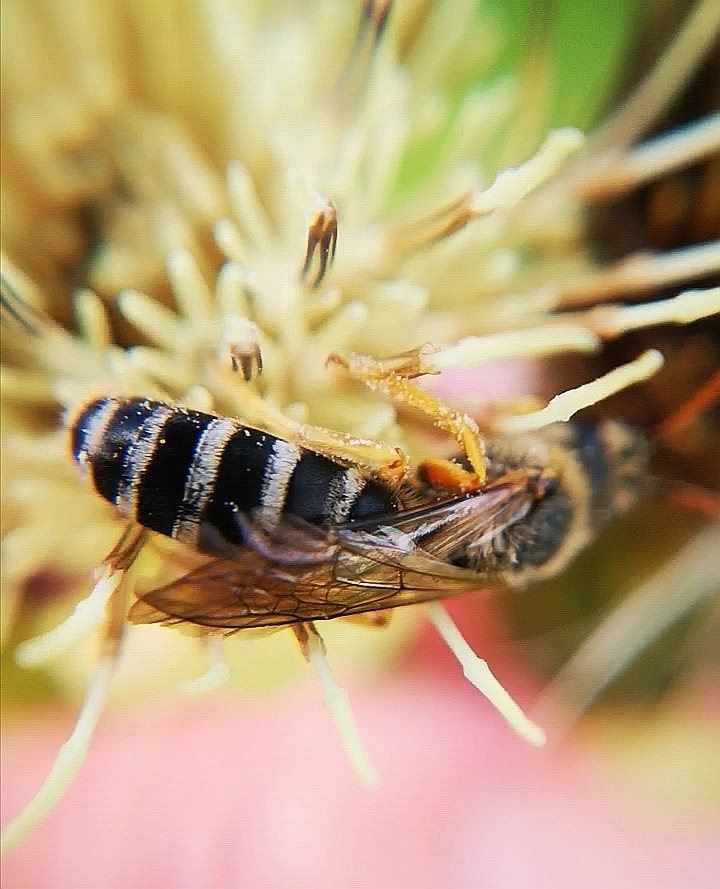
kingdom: Animalia
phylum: Arthropoda
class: Insecta
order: Hymenoptera
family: Halictidae
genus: Halictus
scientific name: Halictus sexcinctus
